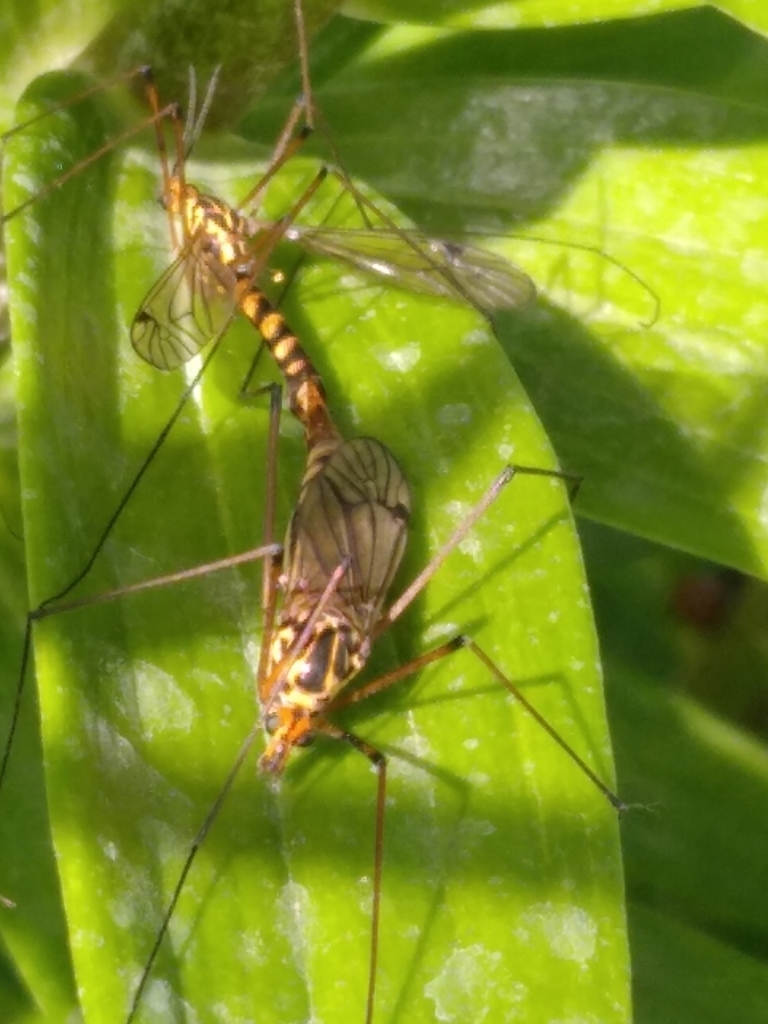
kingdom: Animalia
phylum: Arthropoda
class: Insecta
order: Diptera
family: Tipulidae
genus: Nephrotoma
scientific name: Nephrotoma scalaris
